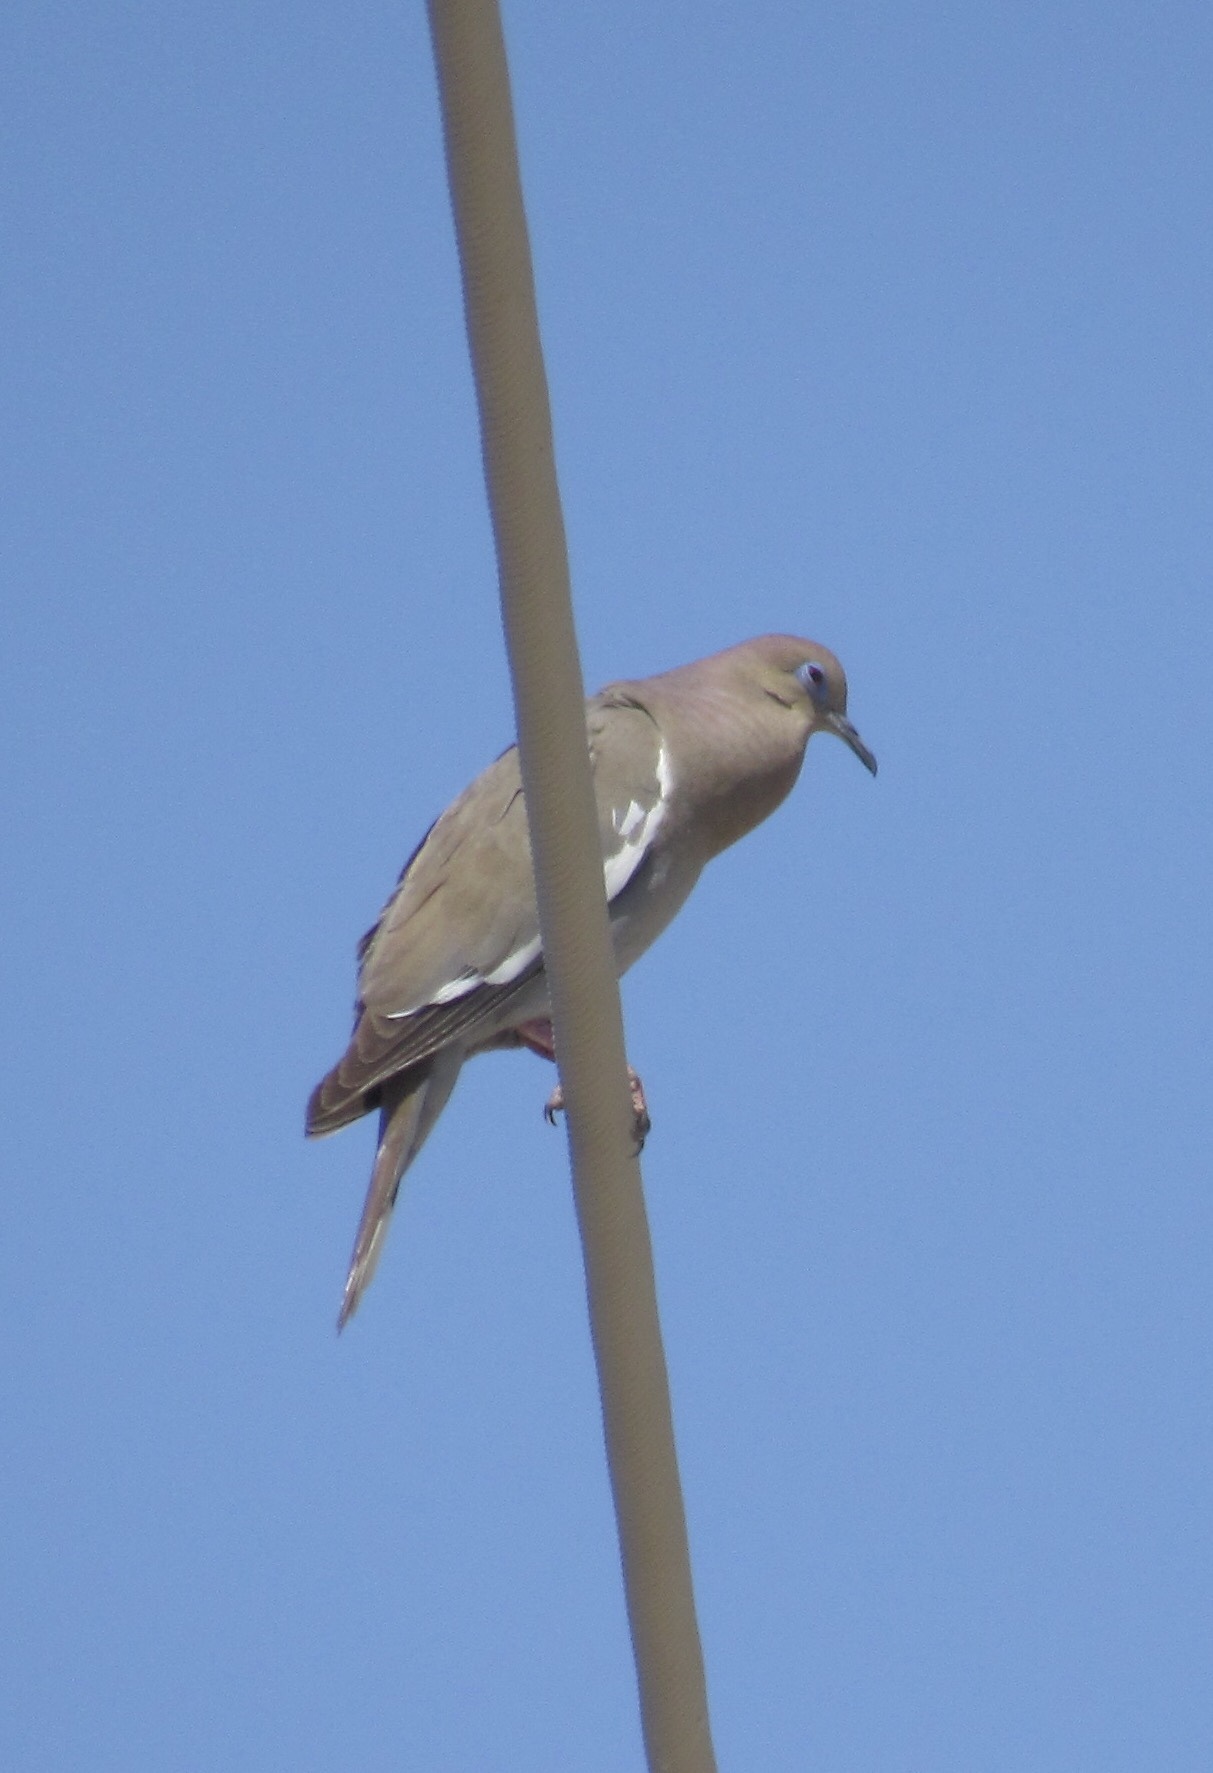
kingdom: Animalia
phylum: Chordata
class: Aves
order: Columbiformes
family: Columbidae
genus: Zenaida
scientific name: Zenaida asiatica
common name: White-winged dove
